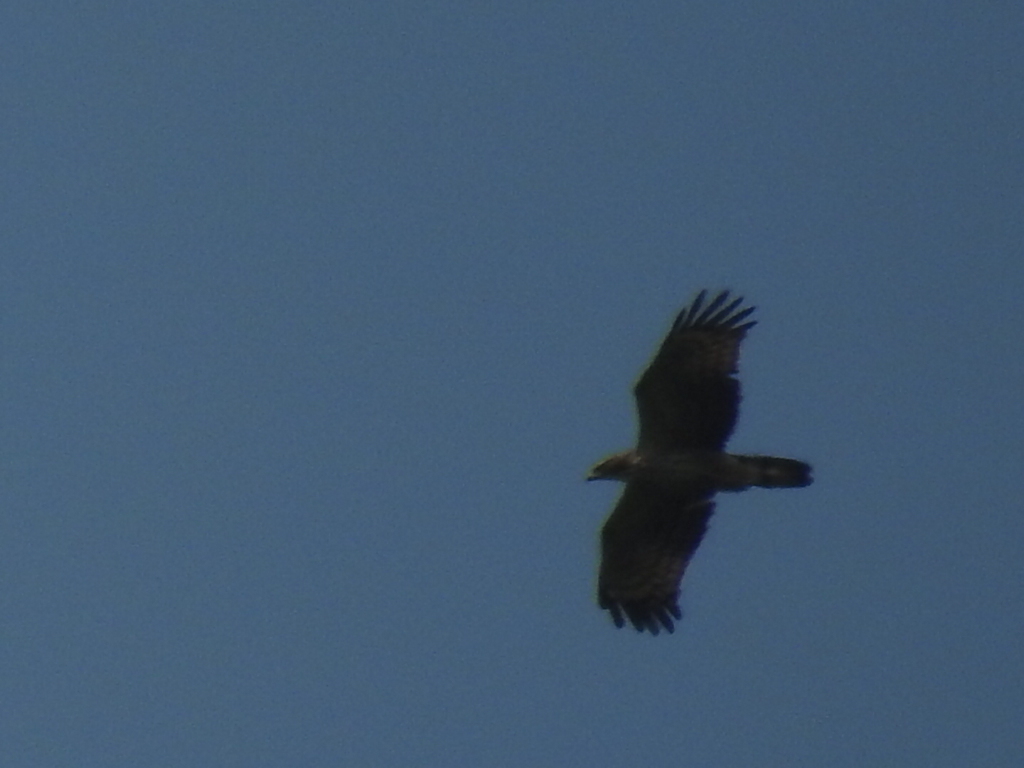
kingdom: Animalia
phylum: Chordata
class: Aves
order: Accipitriformes
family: Accipitridae
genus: Pernis
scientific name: Pernis ptilorhynchus
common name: Crested honey buzzard
